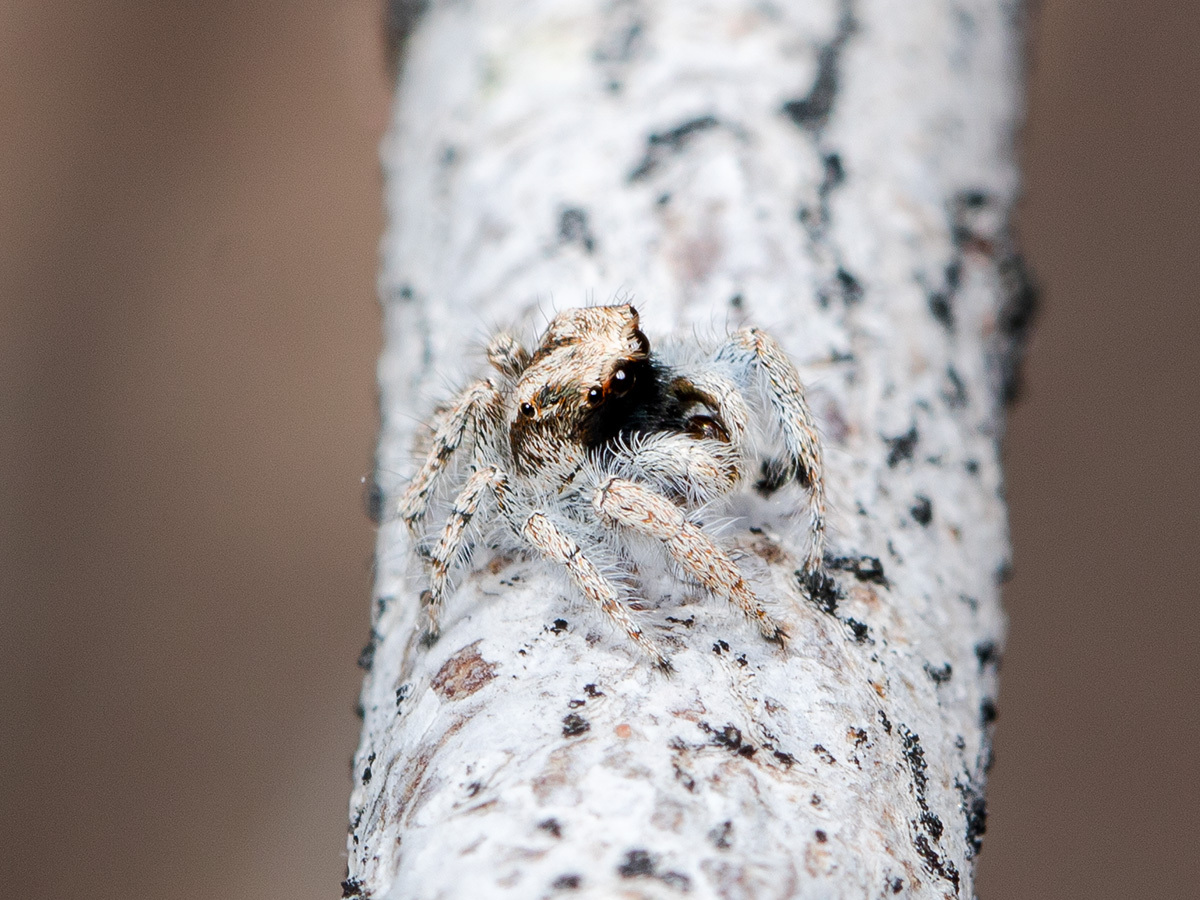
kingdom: Animalia
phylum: Arthropoda
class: Arachnida
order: Araneae
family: Salticidae
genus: Marusyllus
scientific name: Marusyllus aralicus
